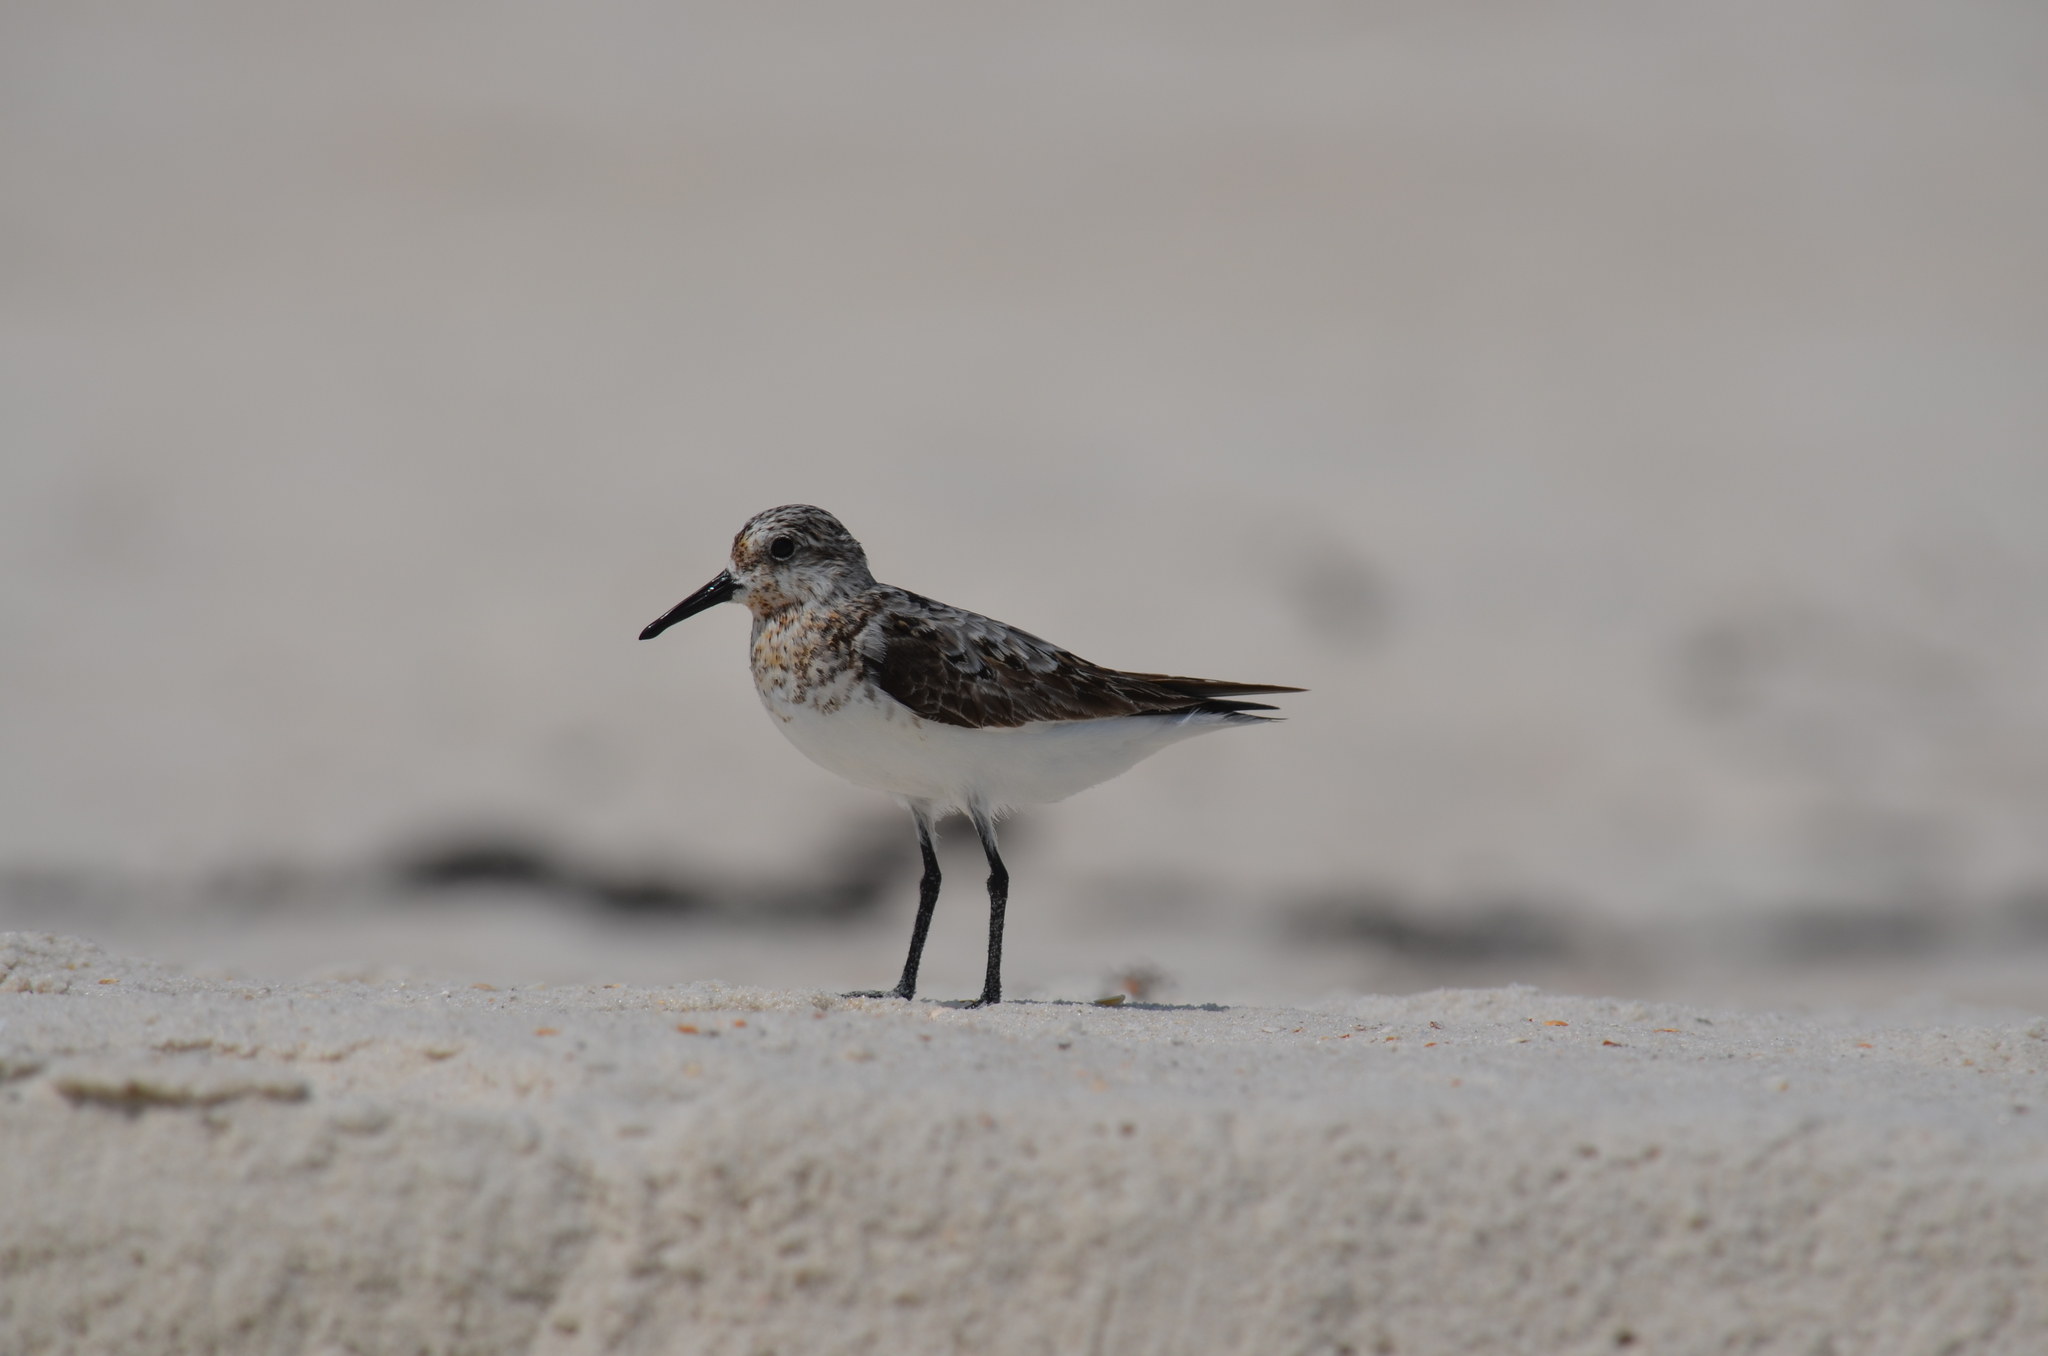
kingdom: Animalia
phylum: Chordata
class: Aves
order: Charadriiformes
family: Scolopacidae
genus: Calidris
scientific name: Calidris alba
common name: Sanderling
